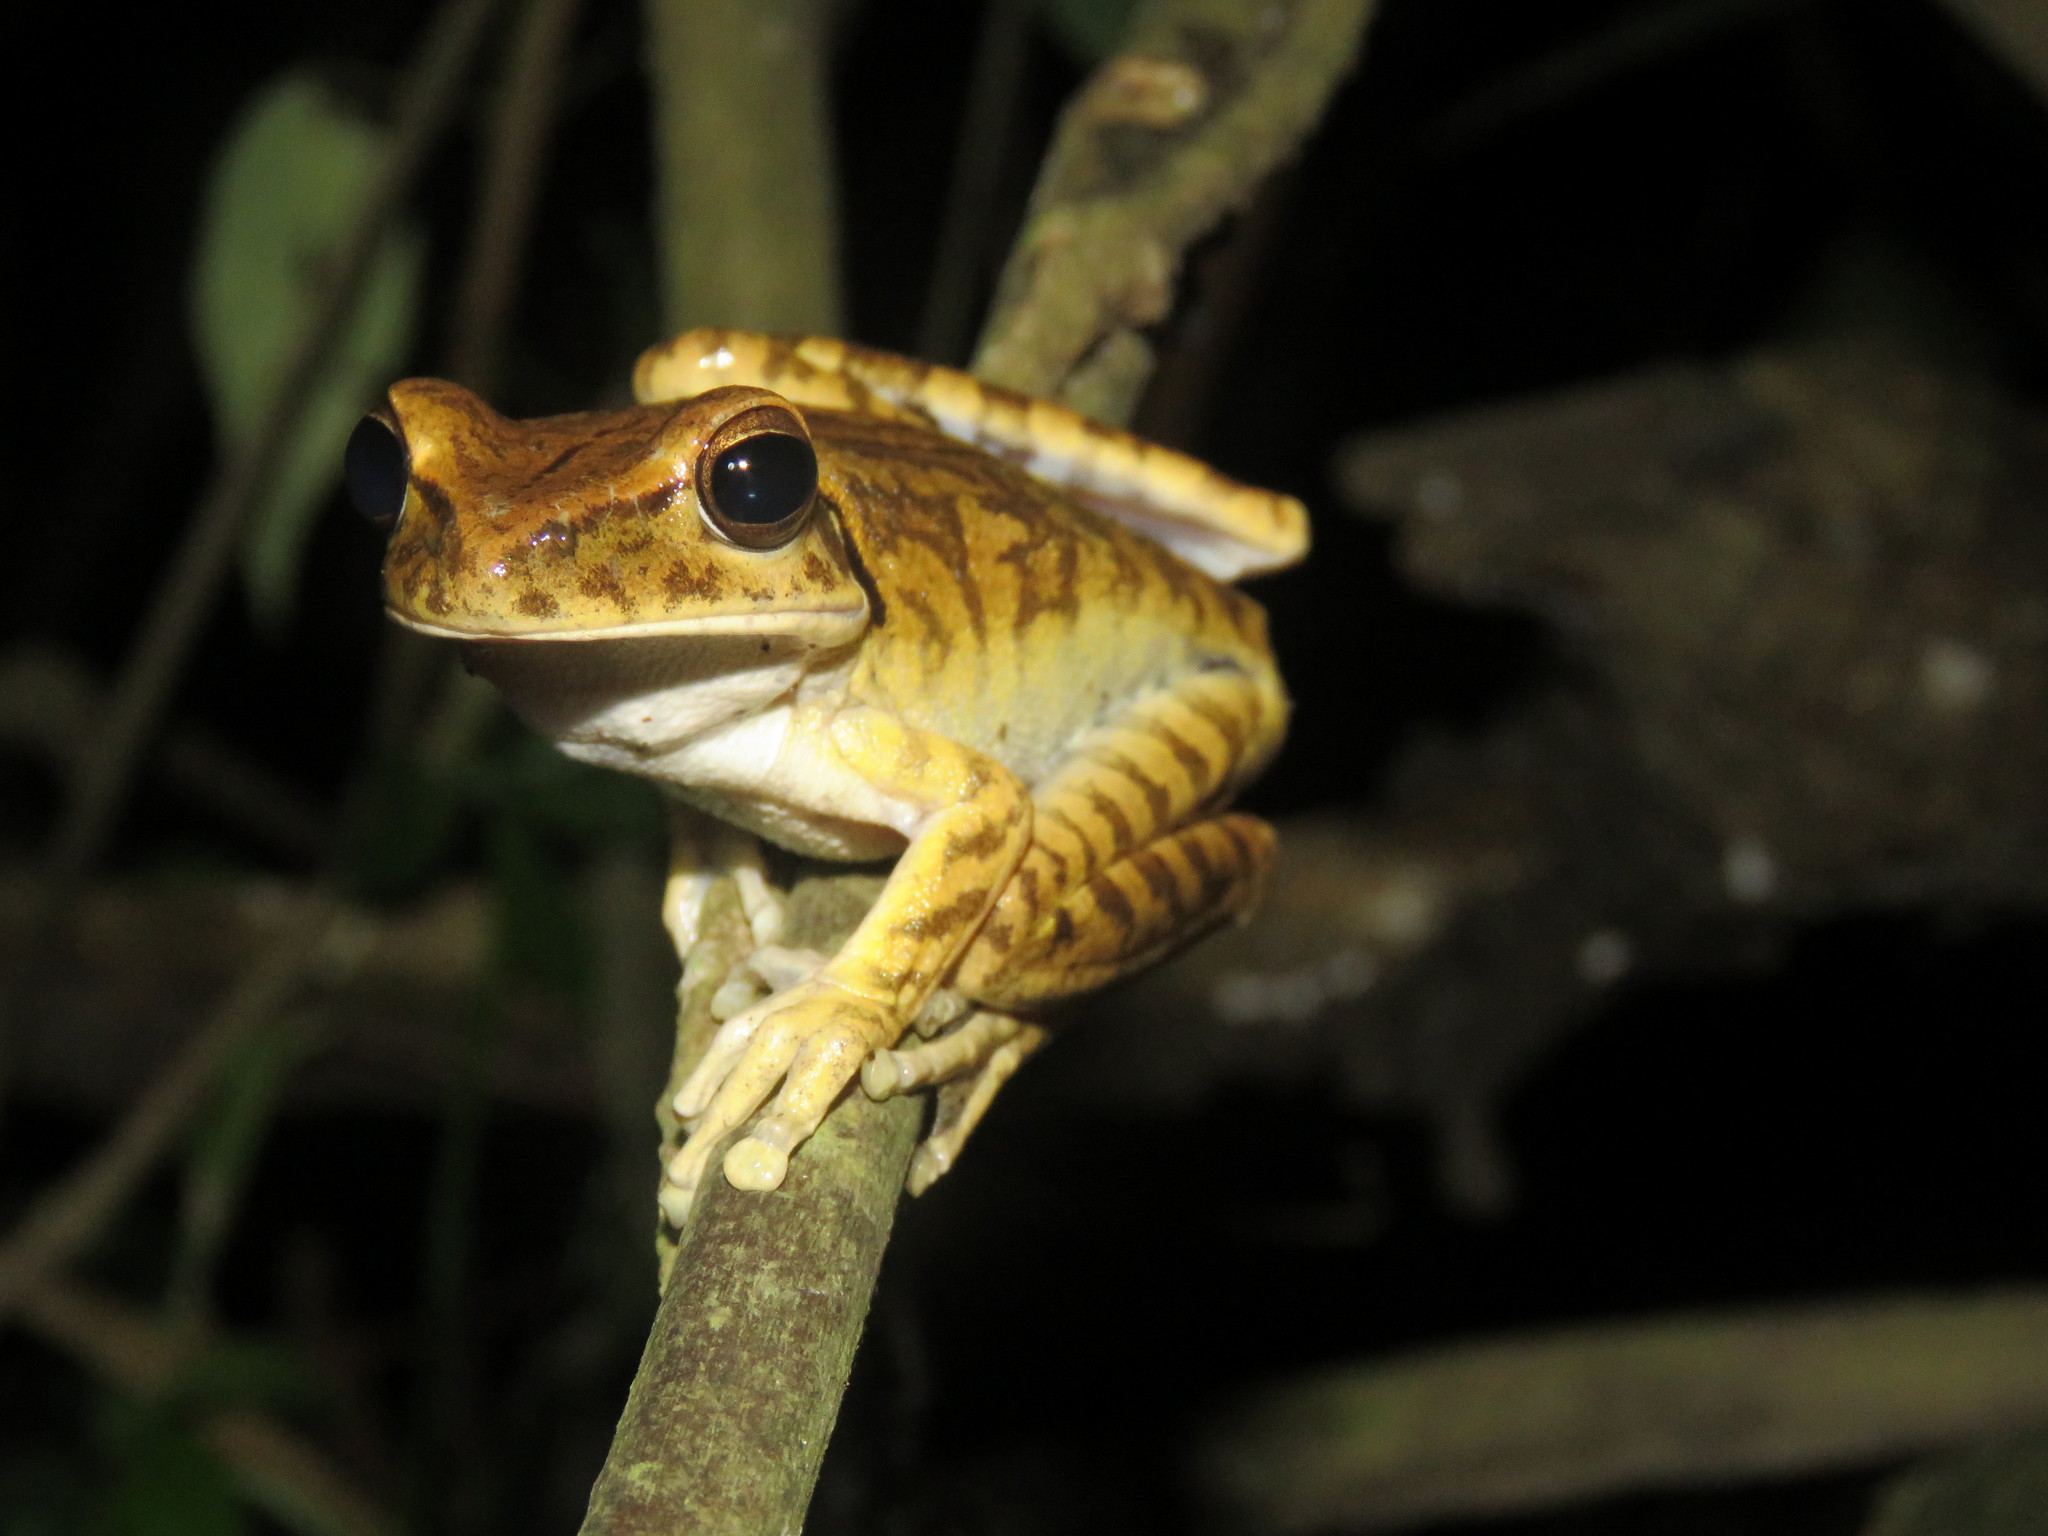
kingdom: Animalia
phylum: Chordata
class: Amphibia
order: Anura
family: Hylidae
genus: Boana
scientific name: Boana raniceps
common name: Chaco treefrog
